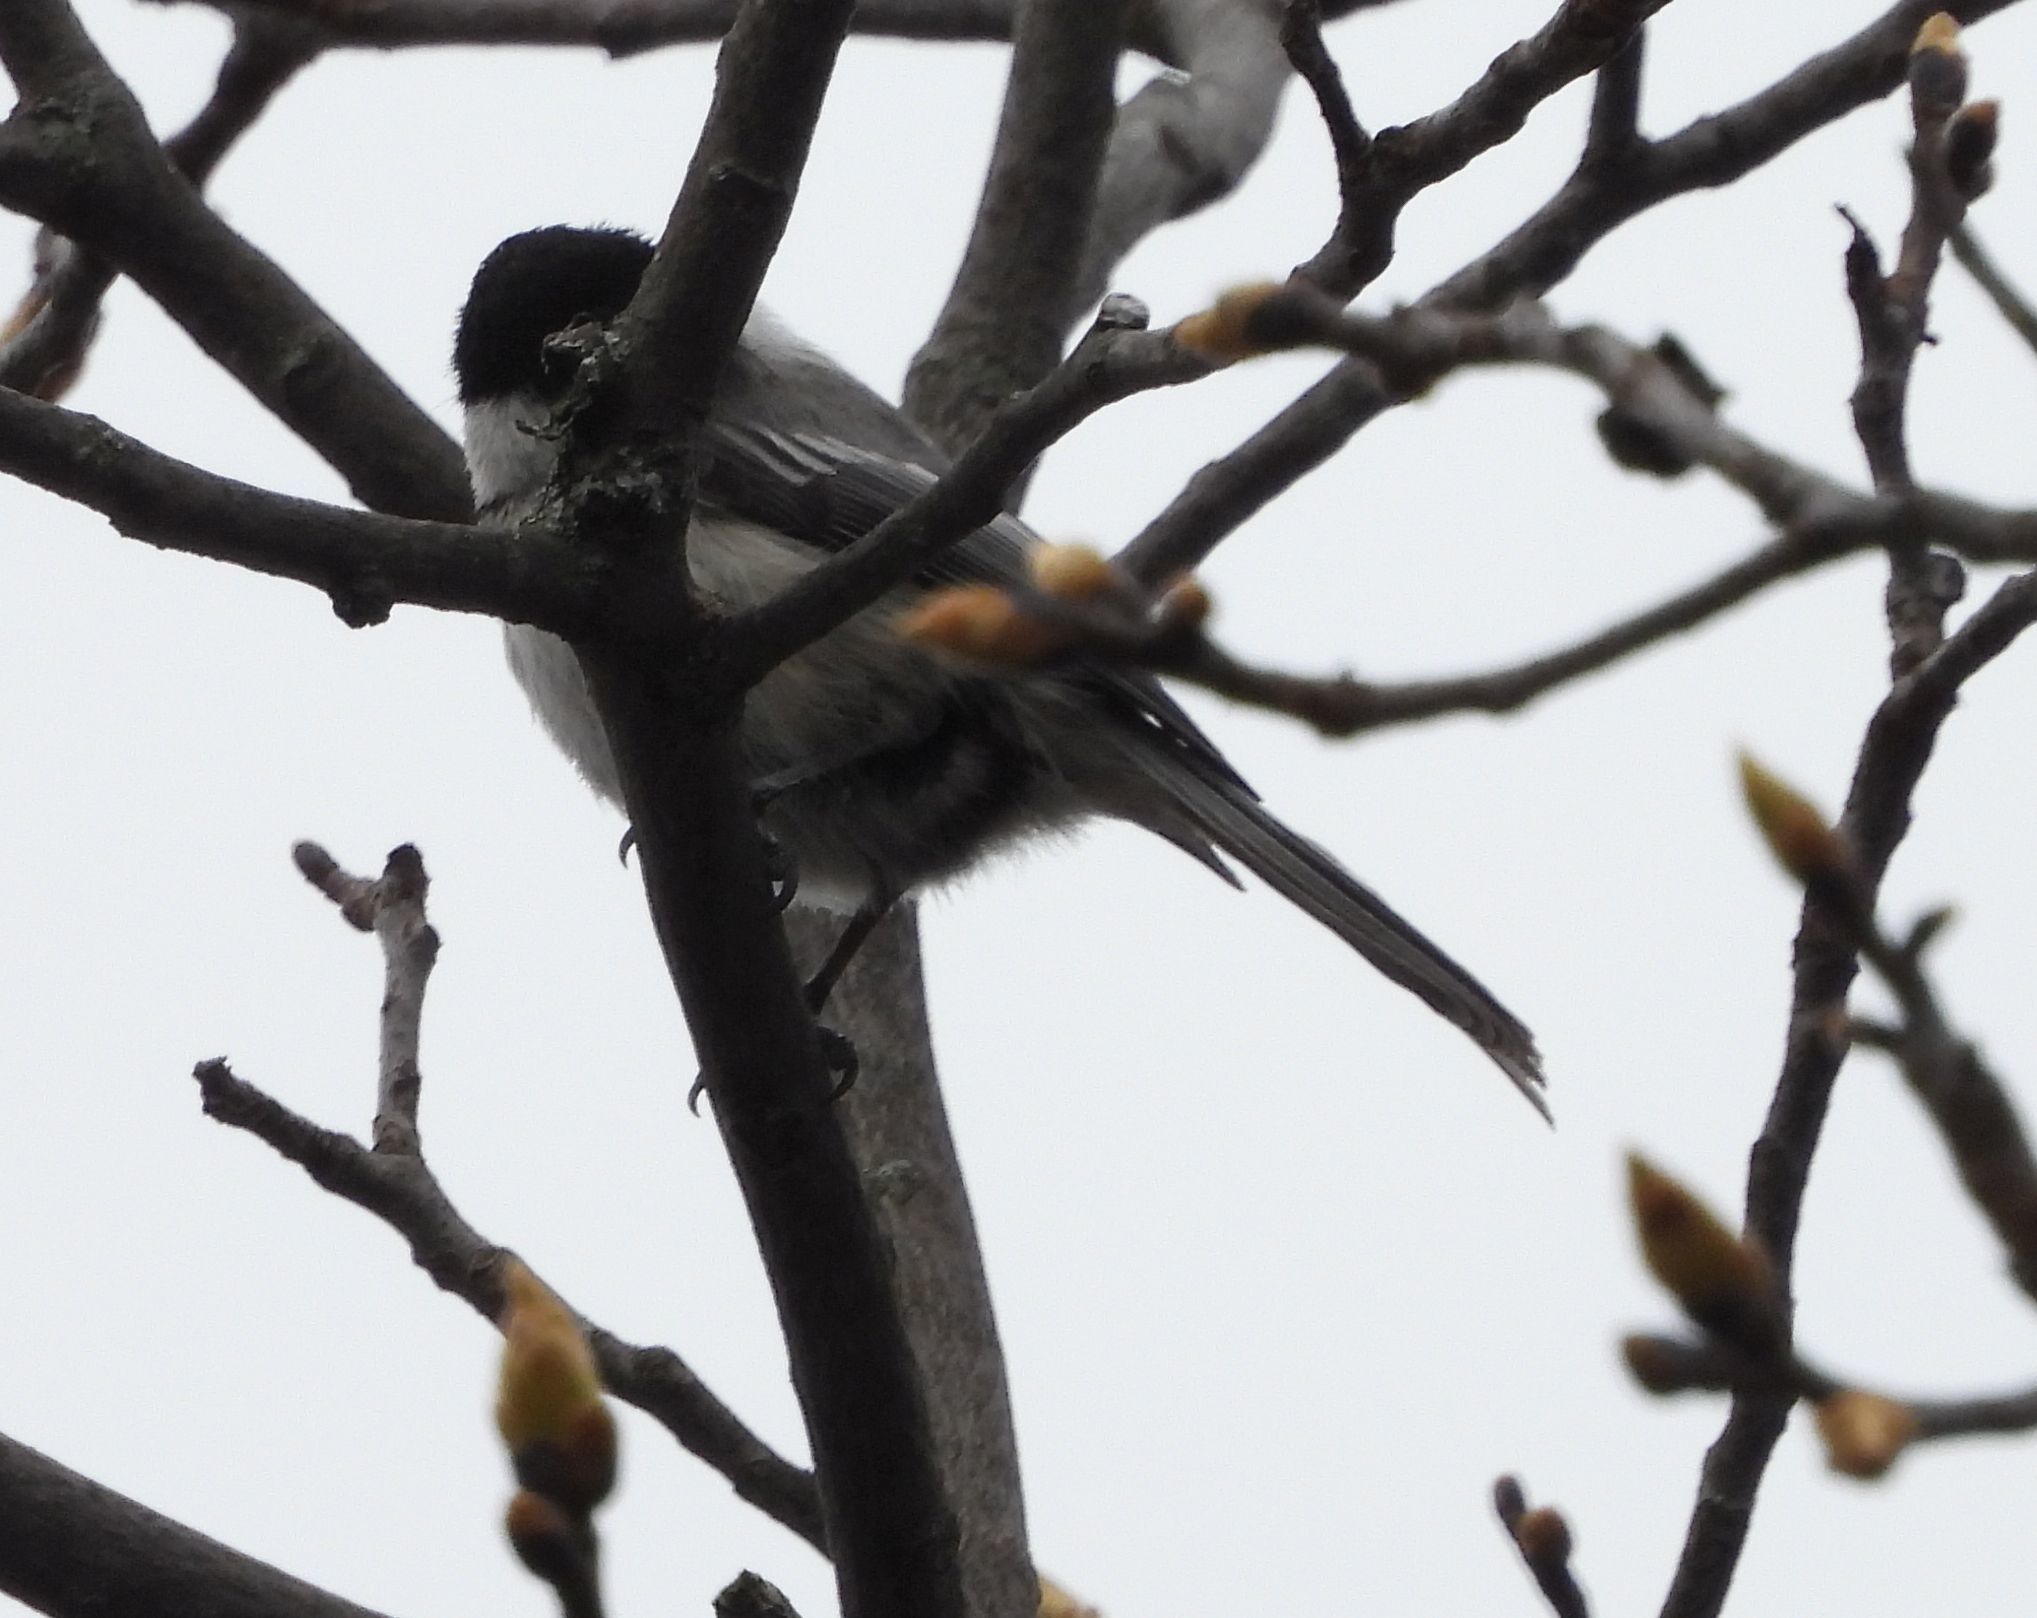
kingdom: Animalia
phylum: Chordata
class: Aves
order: Passeriformes
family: Paridae
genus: Poecile
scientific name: Poecile atricapillus
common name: Black-capped chickadee
